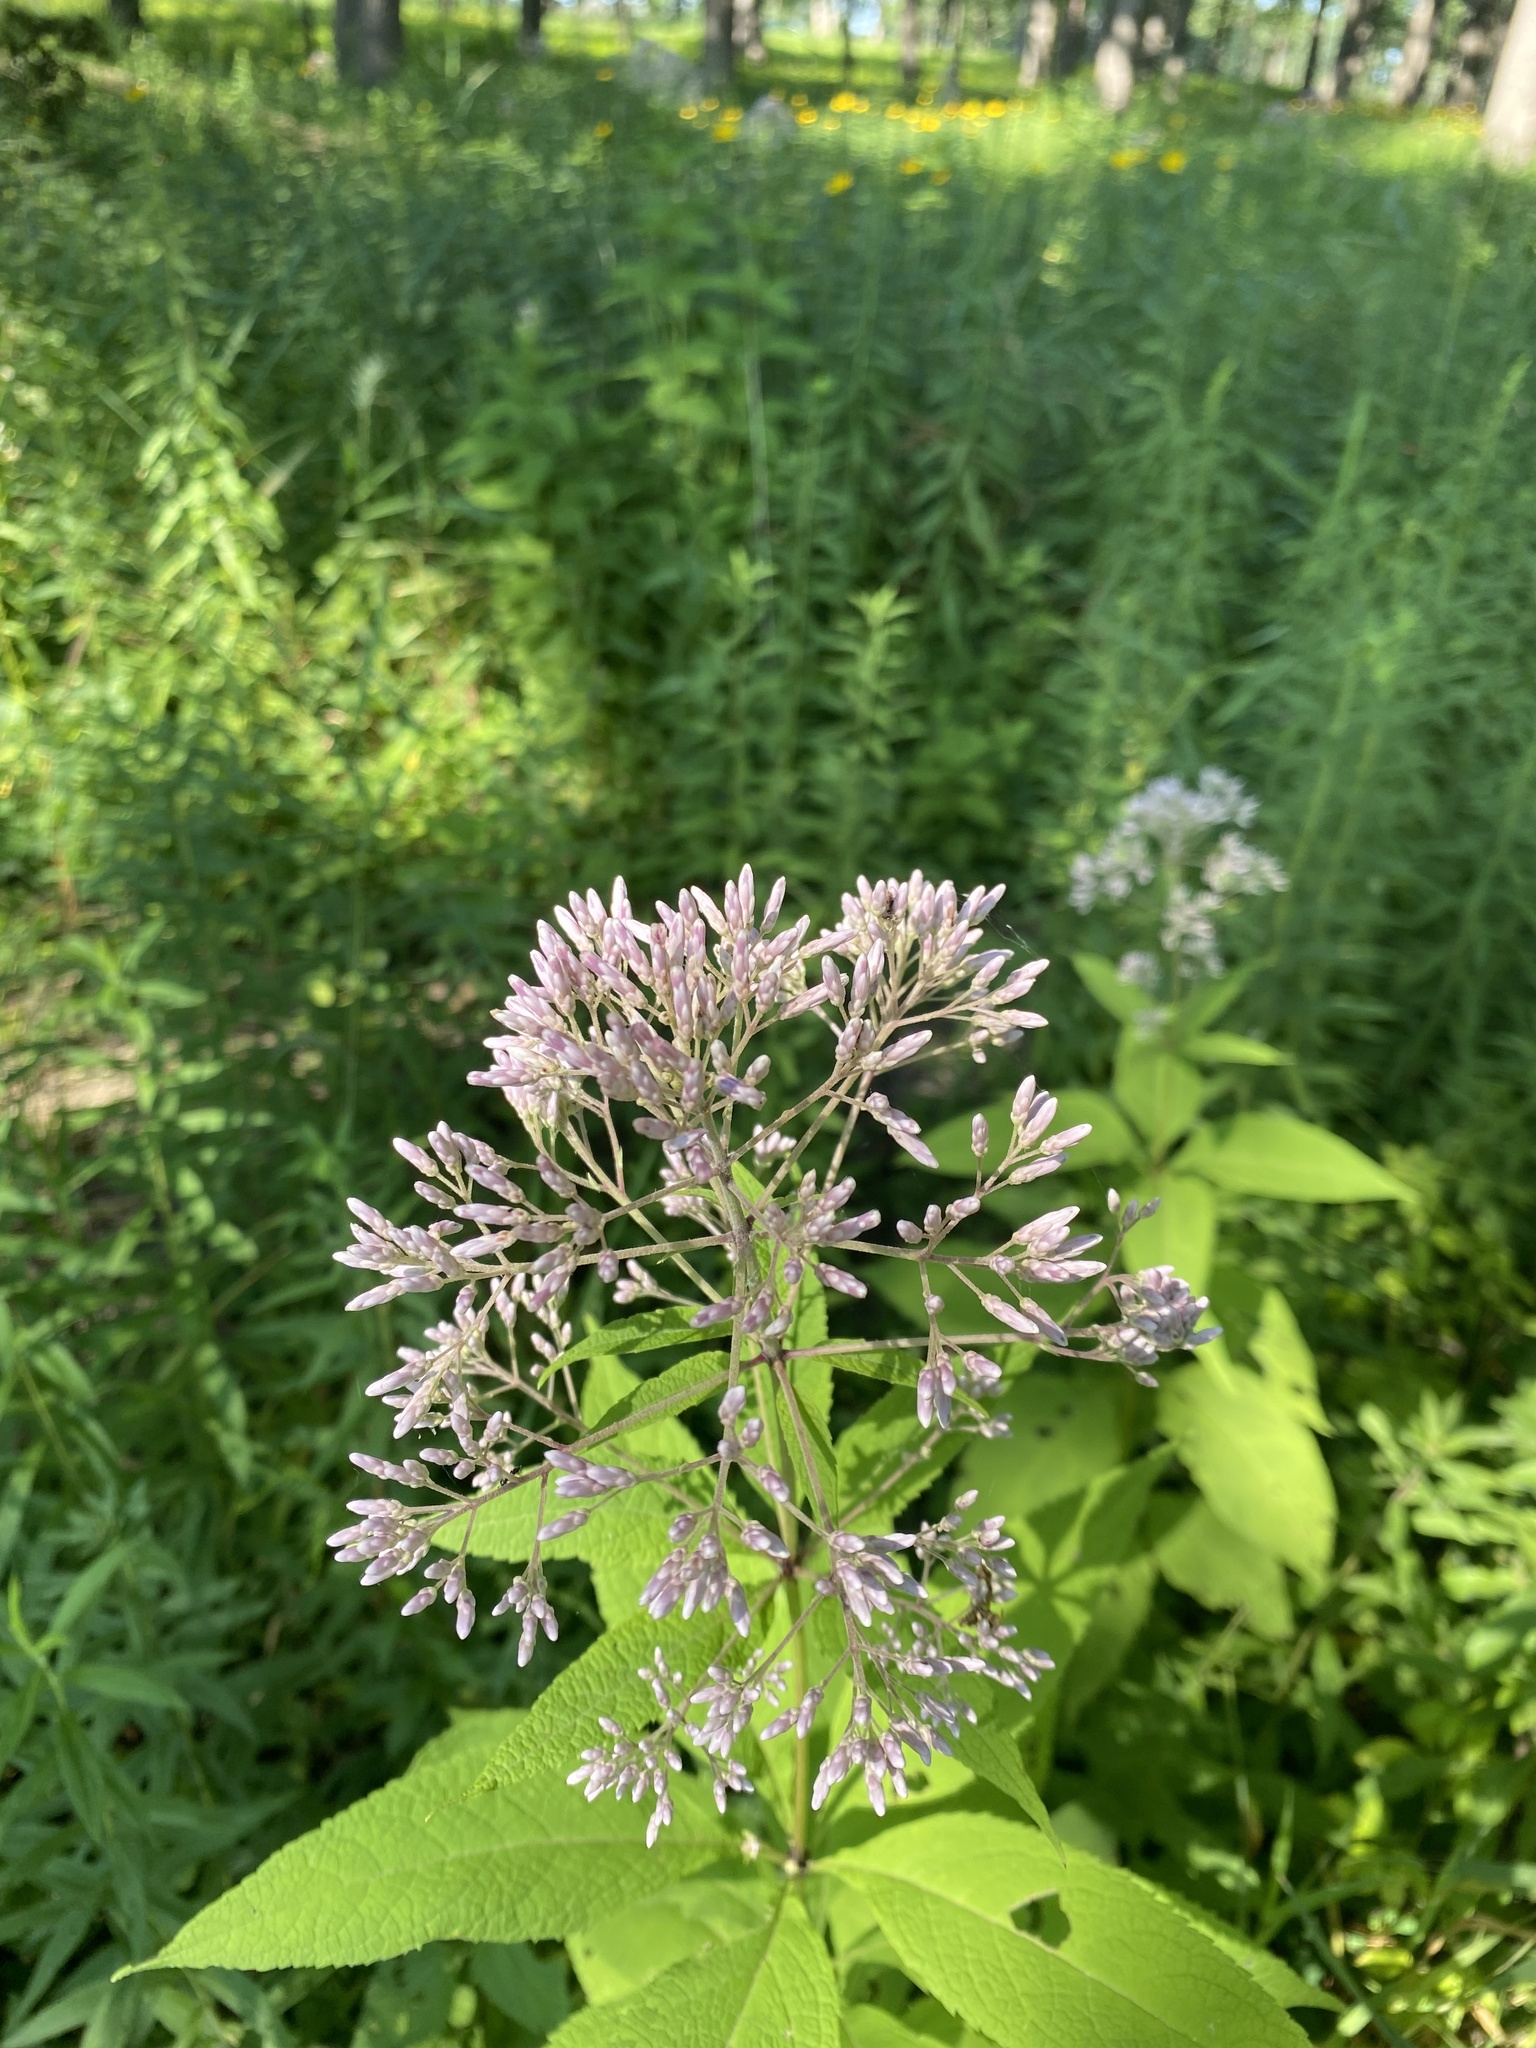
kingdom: Plantae
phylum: Tracheophyta
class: Magnoliopsida
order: Asterales
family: Asteraceae
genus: Eutrochium
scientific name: Eutrochium purpureum
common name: Gravelroot
